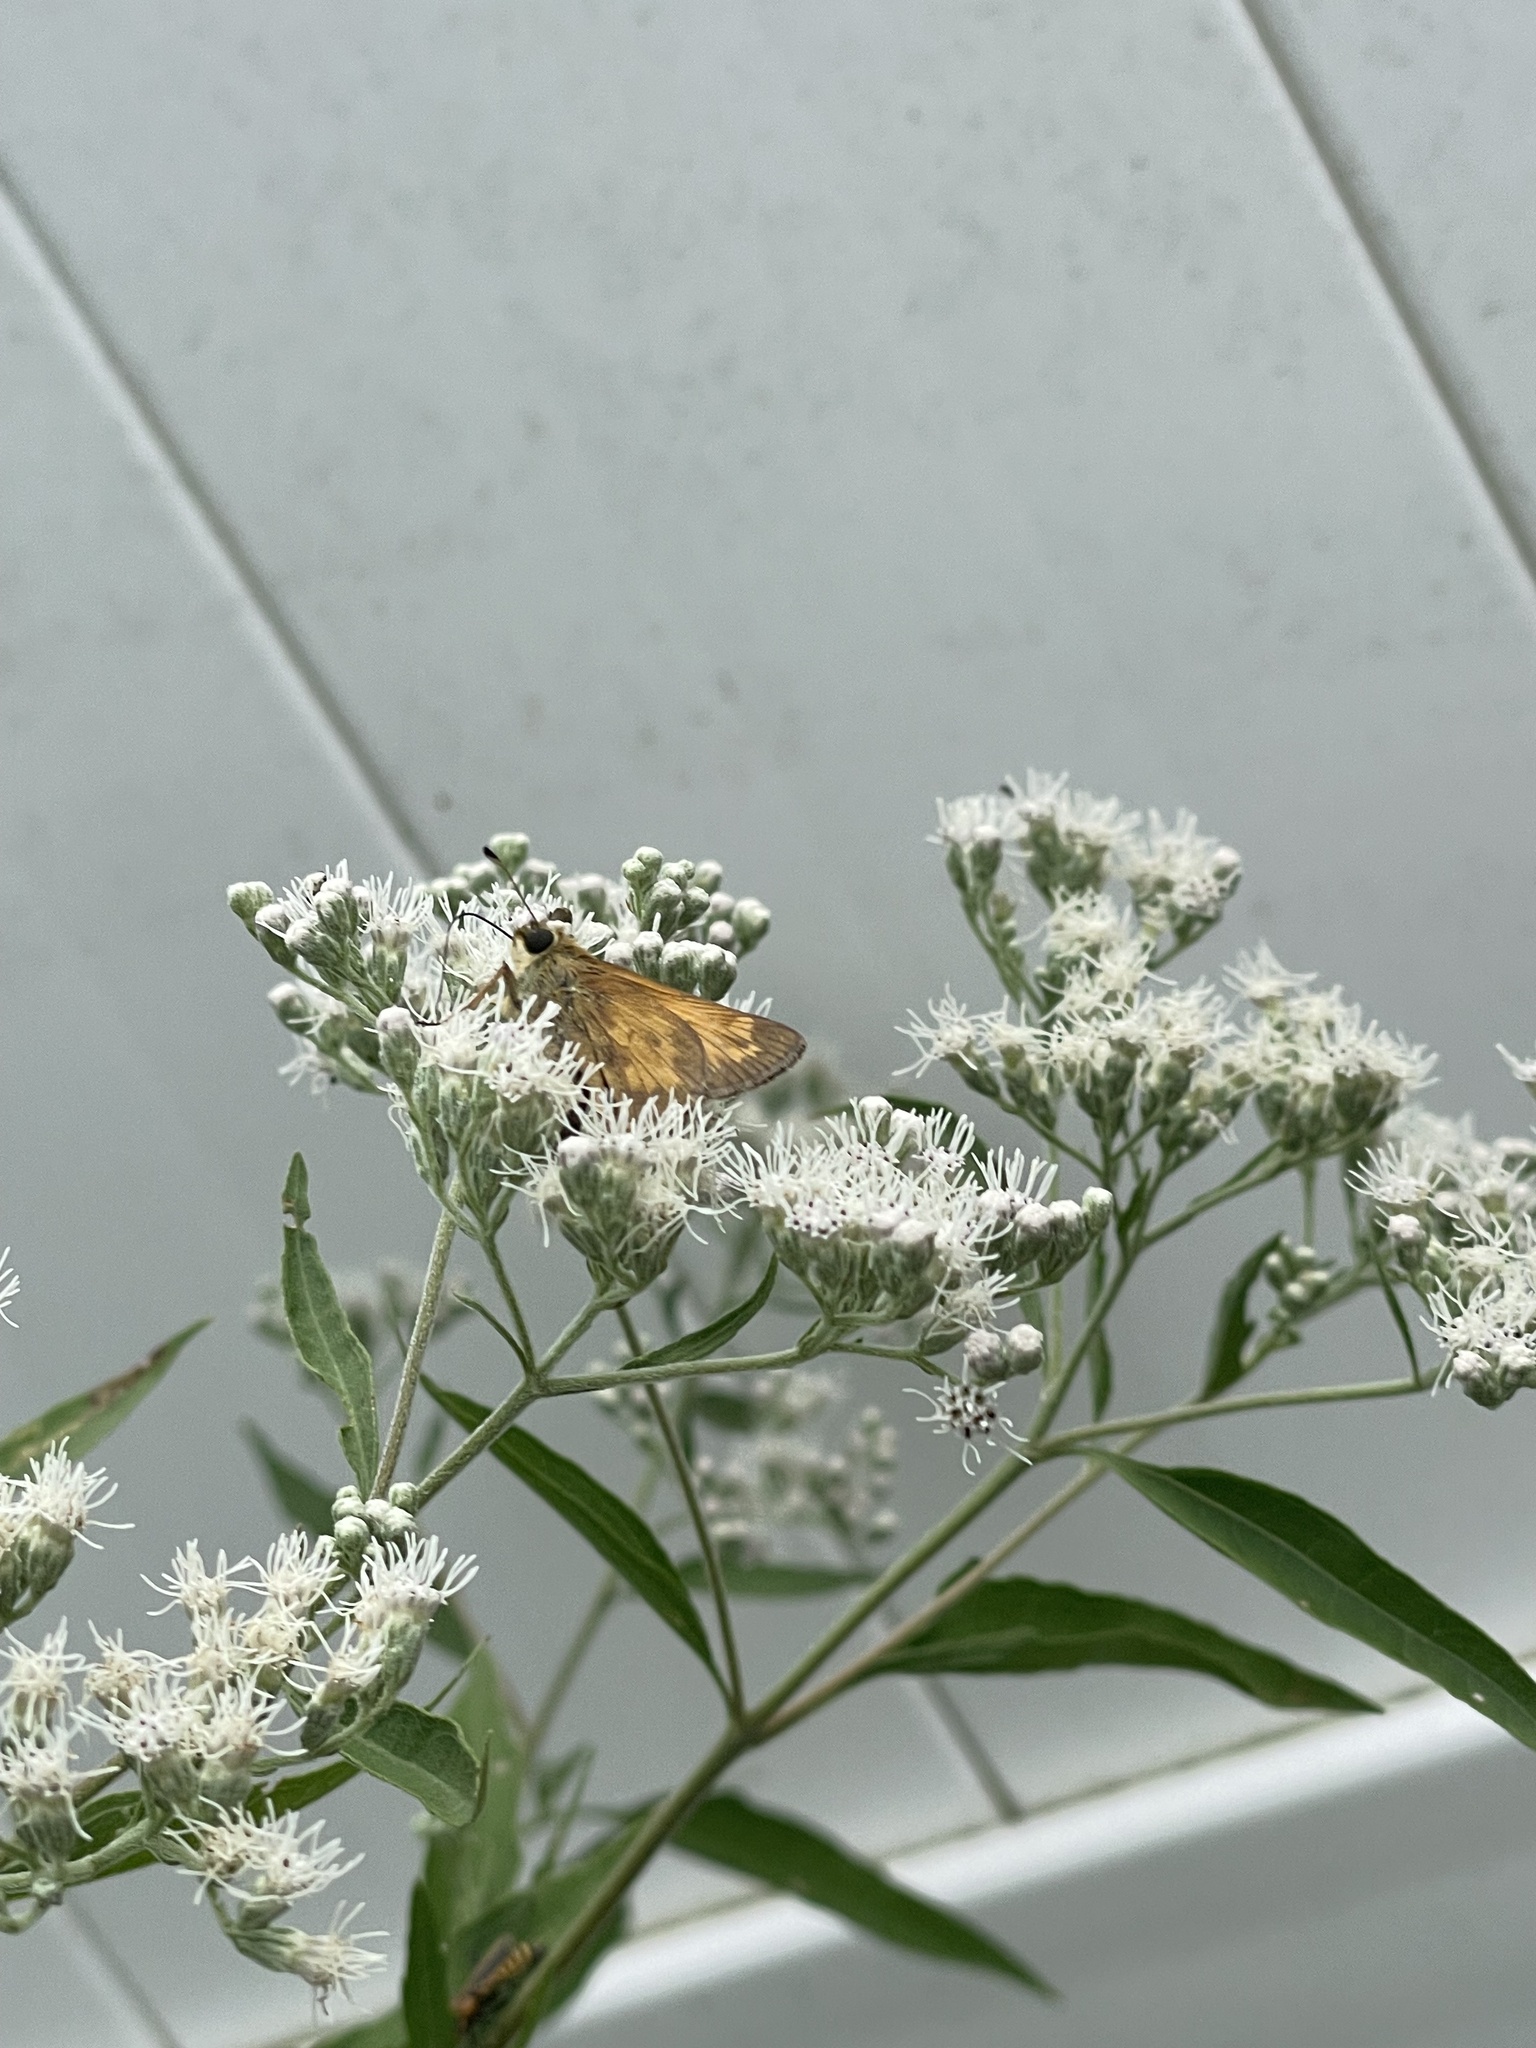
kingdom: Animalia
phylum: Arthropoda
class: Insecta
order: Lepidoptera
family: Hesperiidae
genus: Atalopedes
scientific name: Atalopedes
